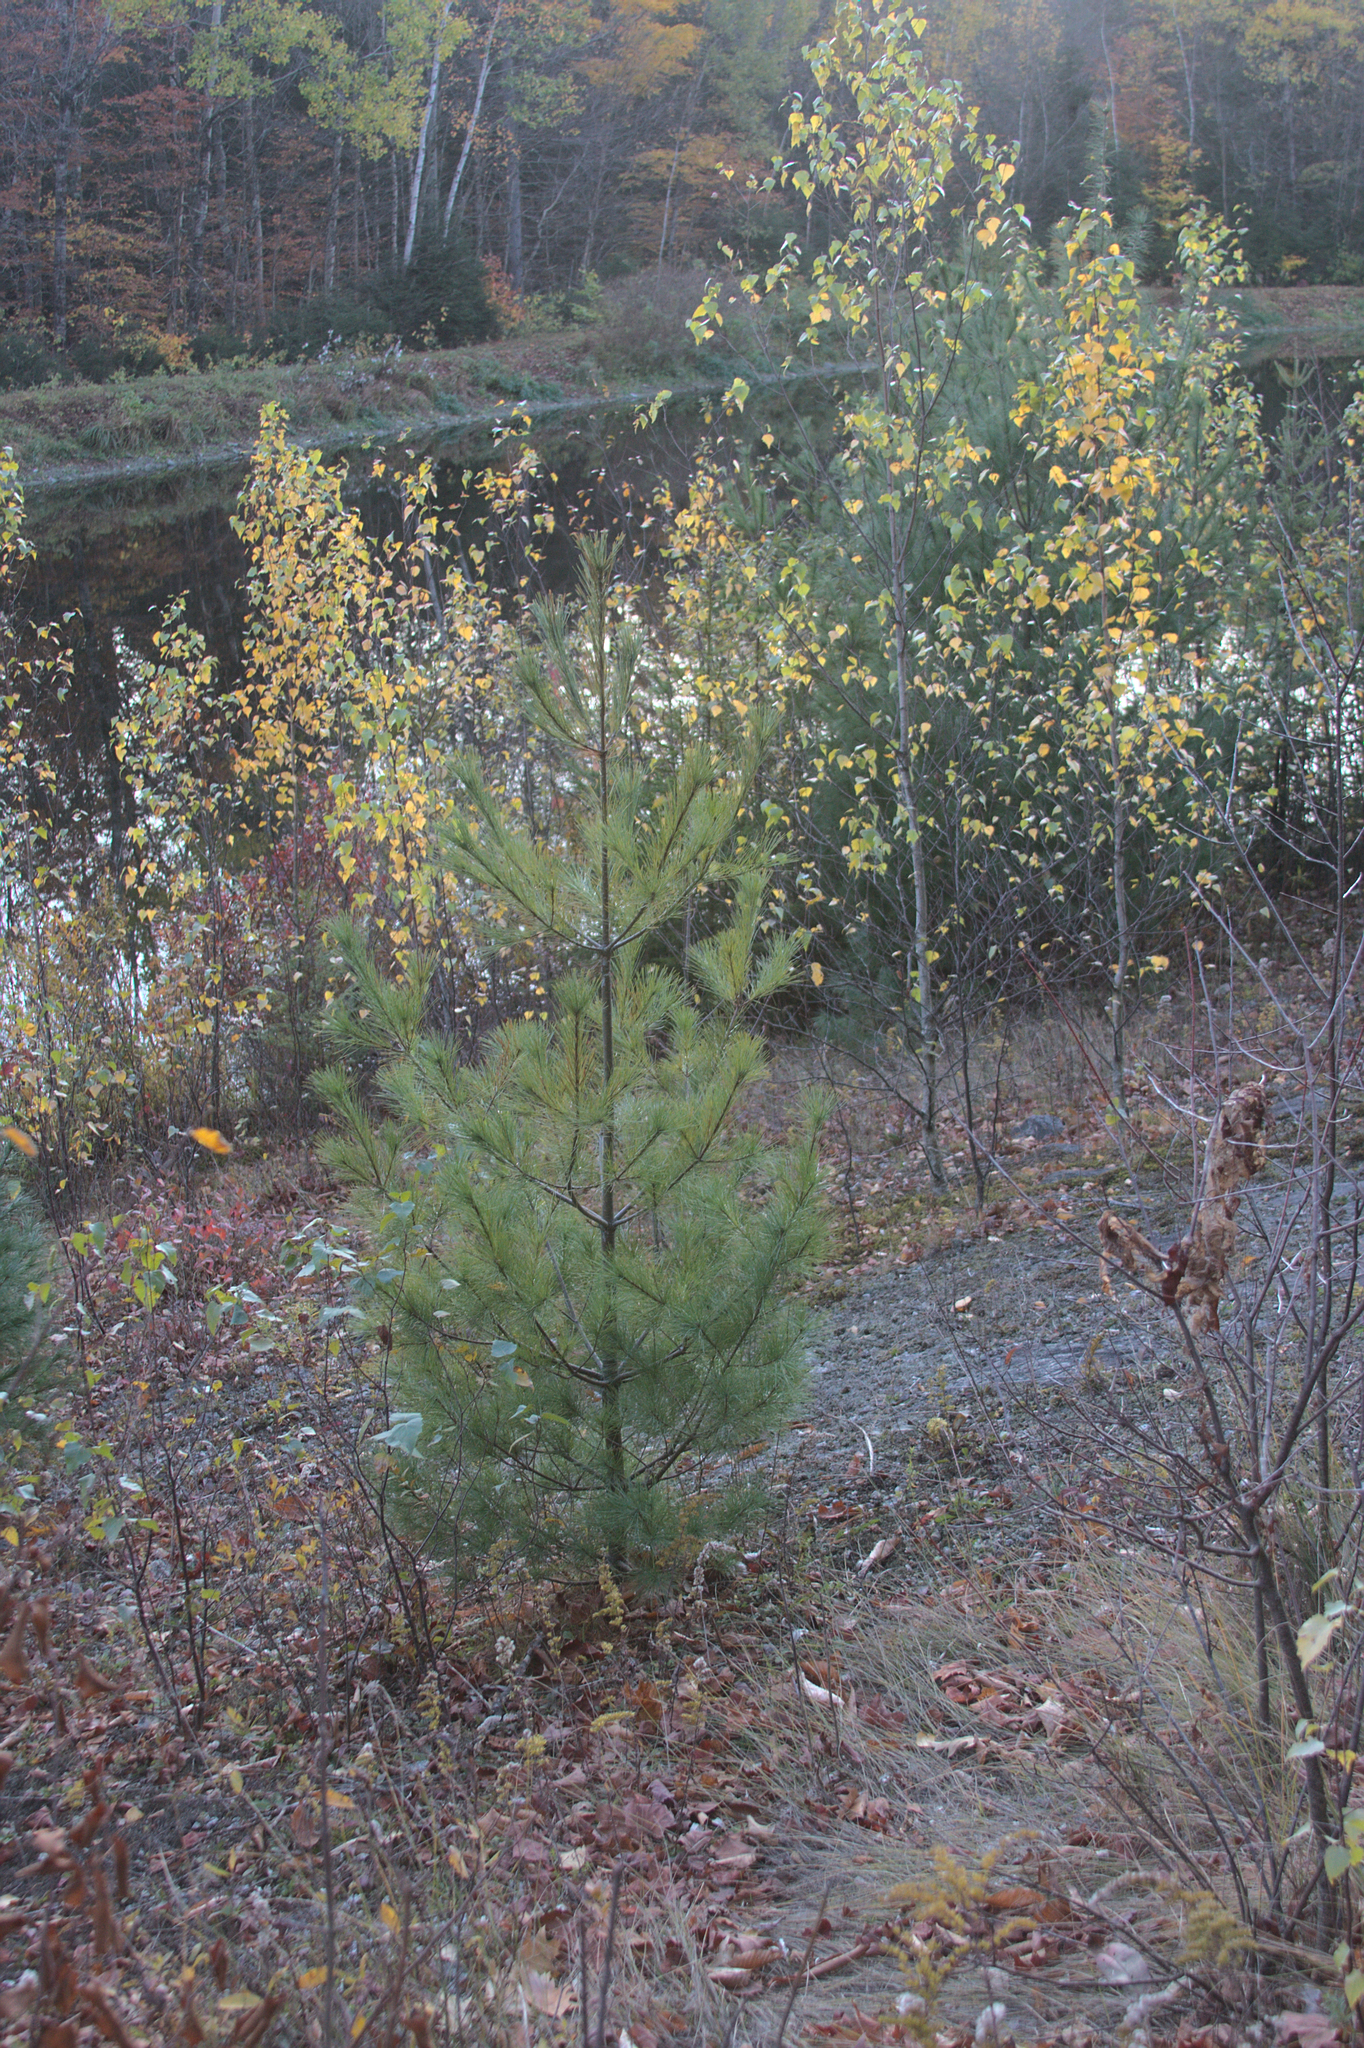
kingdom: Plantae
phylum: Tracheophyta
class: Pinopsida
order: Pinales
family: Pinaceae
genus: Pinus
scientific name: Pinus strobus
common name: Weymouth pine
